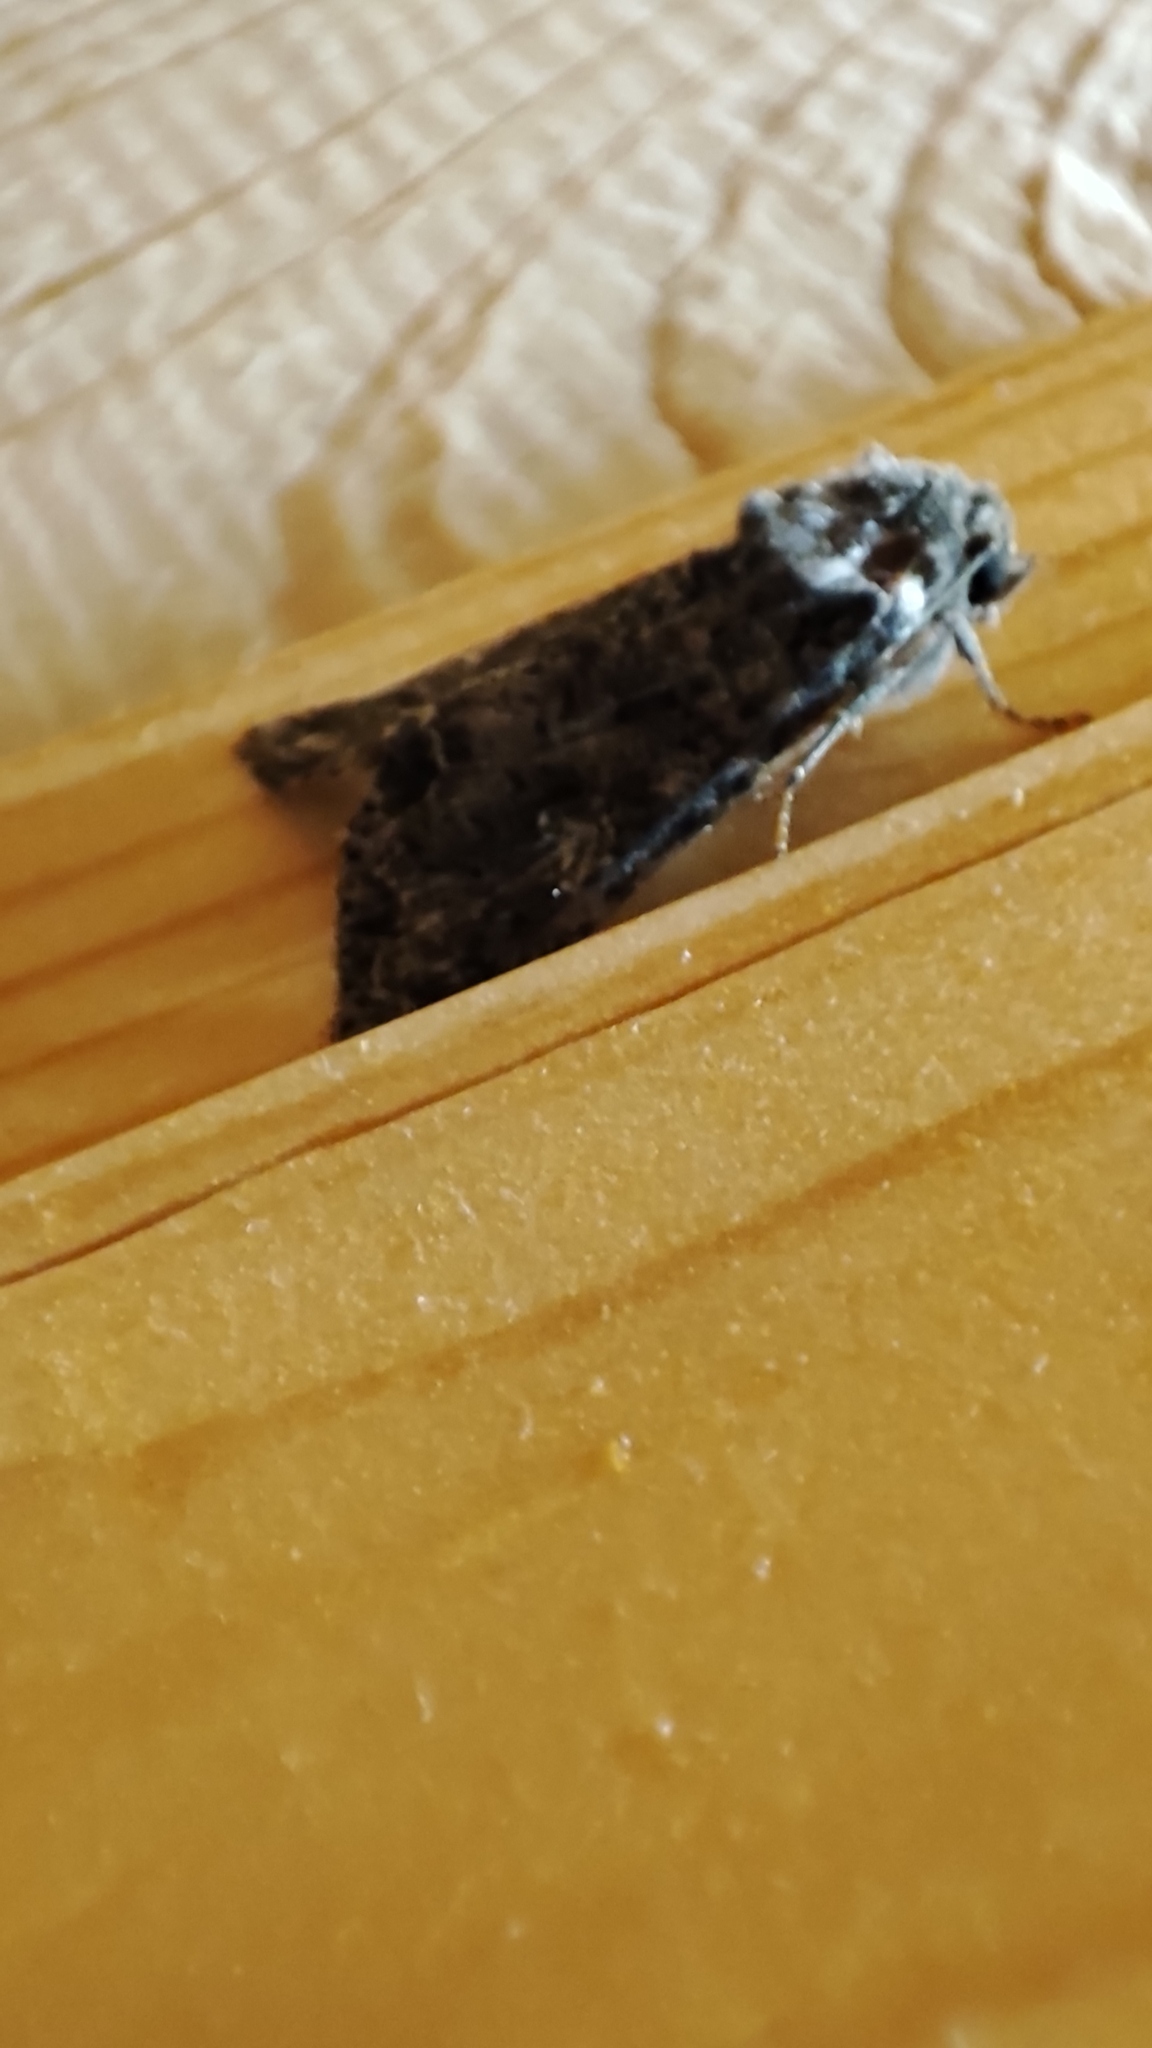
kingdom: Animalia
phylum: Arthropoda
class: Insecta
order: Lepidoptera
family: Noctuidae
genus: Mamestra
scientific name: Mamestra brassicae
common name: Cabbage moth
